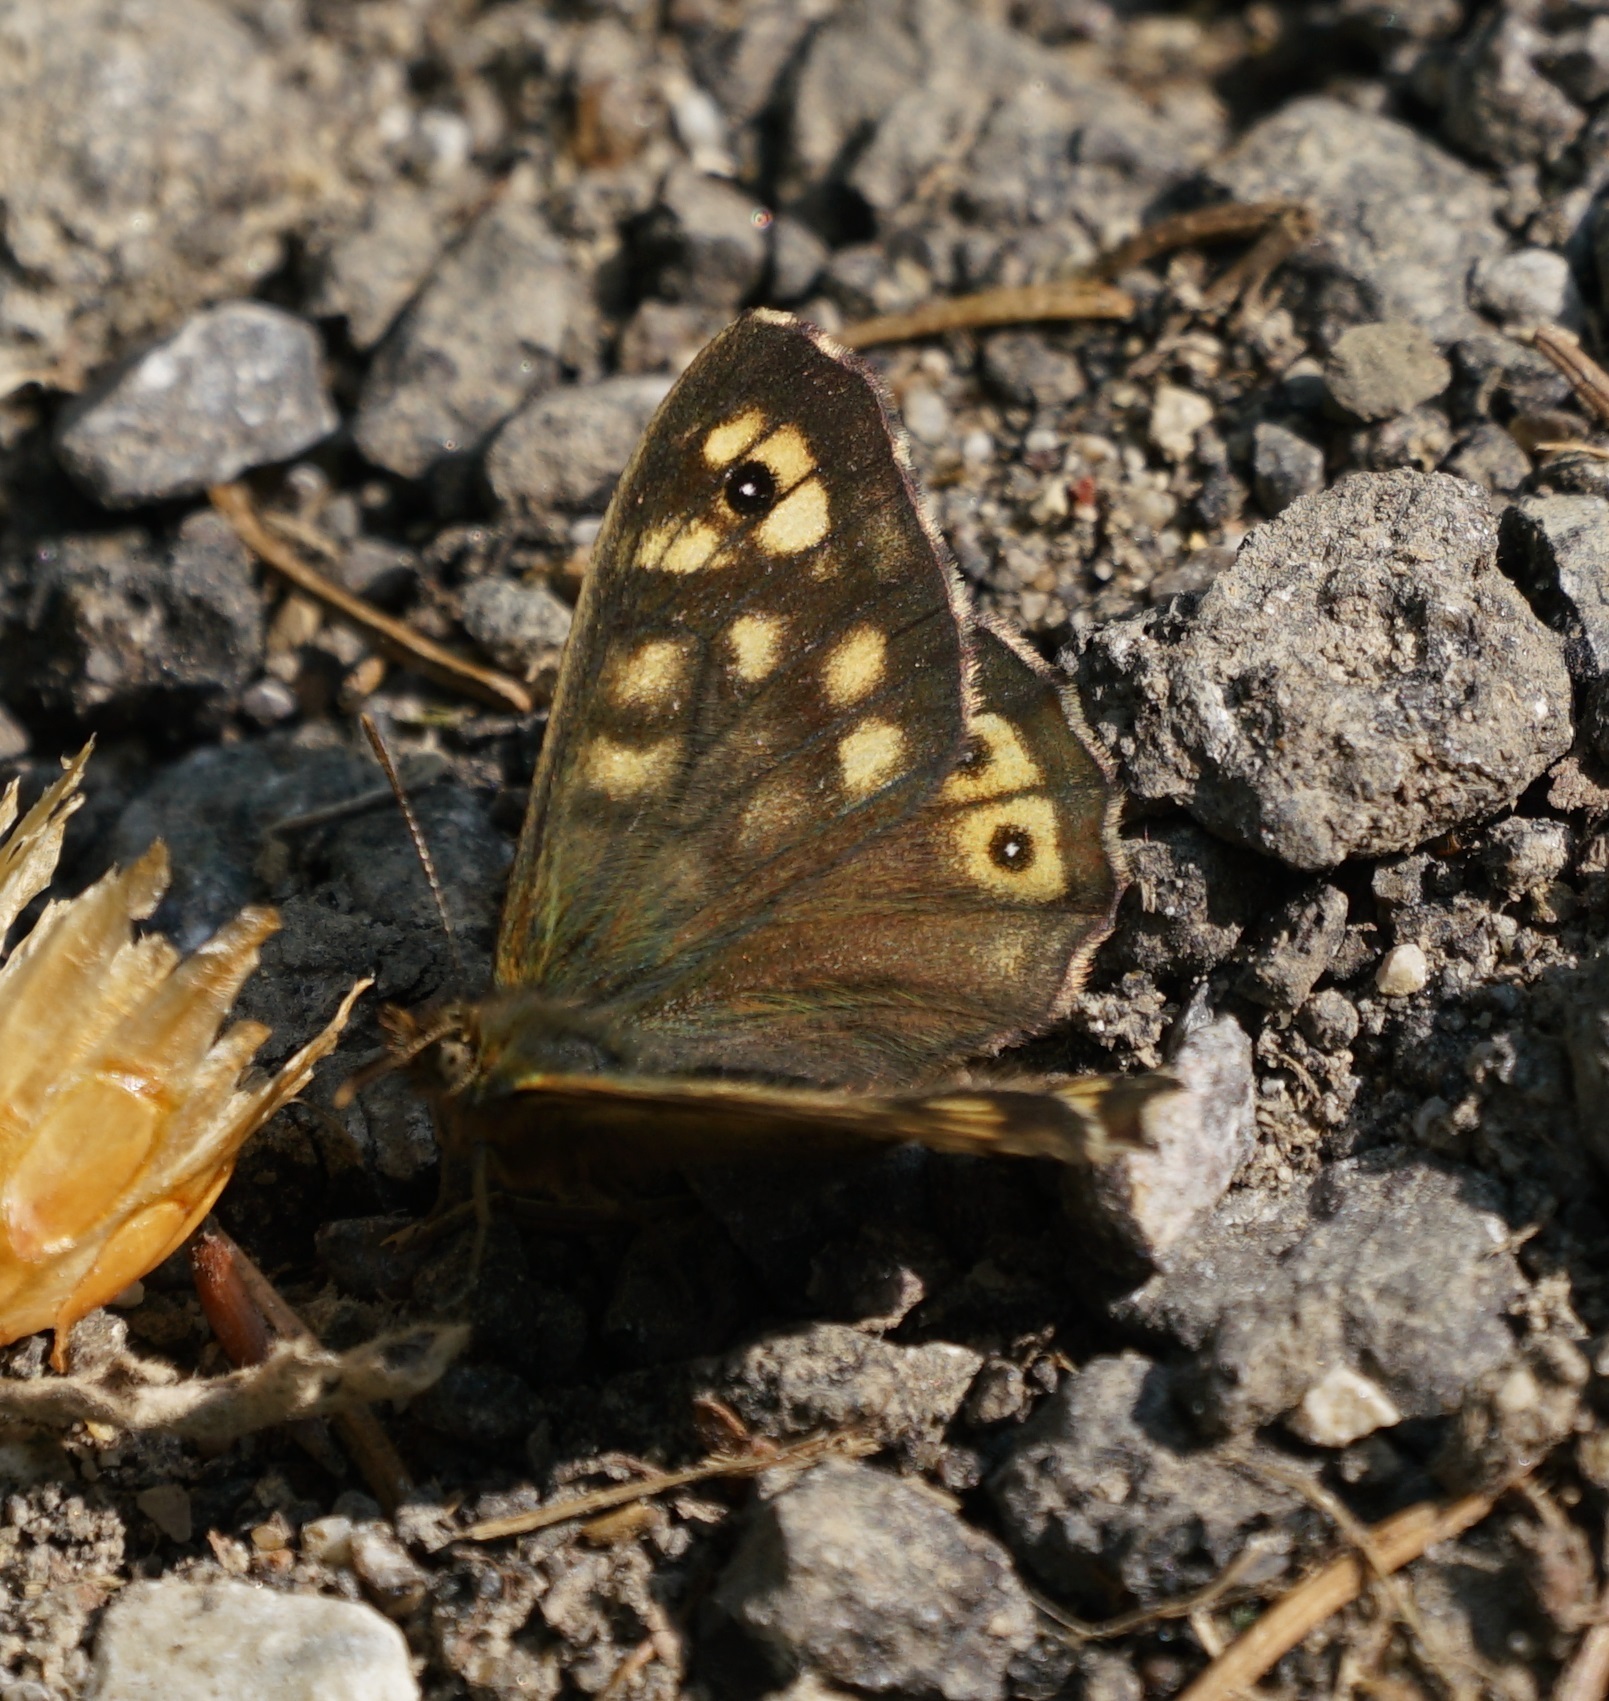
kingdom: Animalia
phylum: Arthropoda
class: Insecta
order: Lepidoptera
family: Nymphalidae
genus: Pararge
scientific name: Pararge aegeria
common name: Speckled wood
